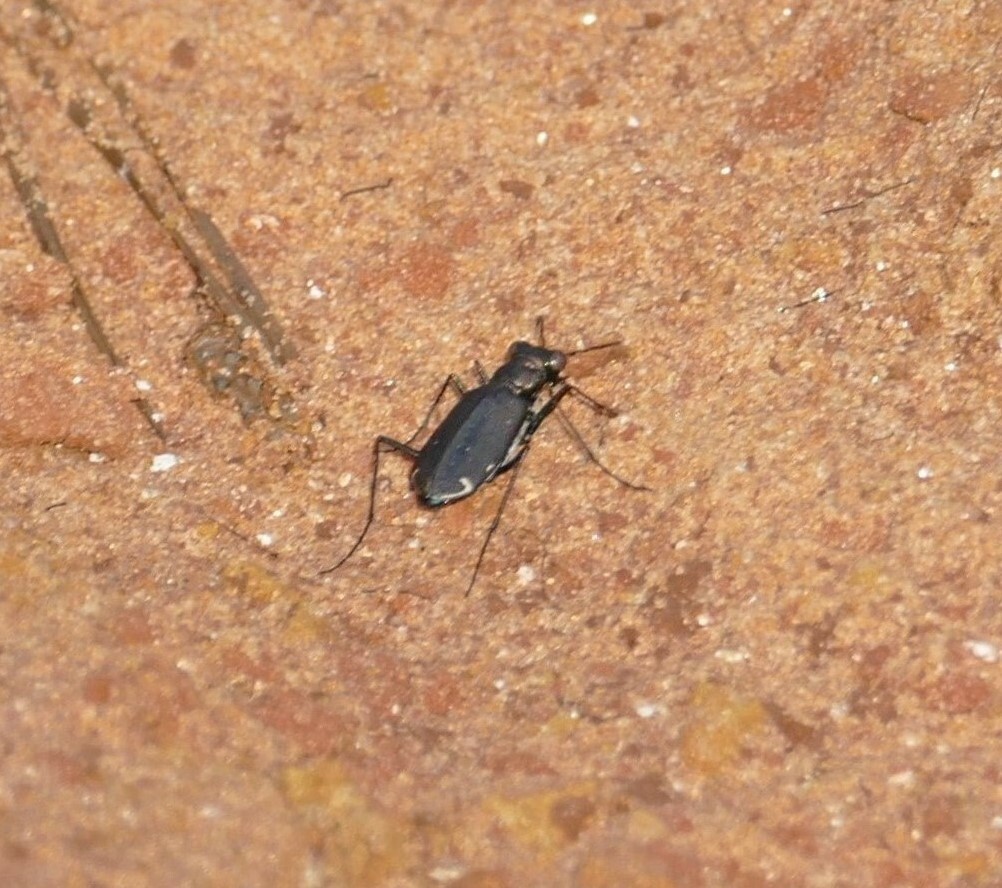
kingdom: Animalia
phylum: Arthropoda
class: Insecta
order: Coleoptera
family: Carabidae
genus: Cicindela
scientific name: Cicindela punctulata
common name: Punctured tiger beetle
